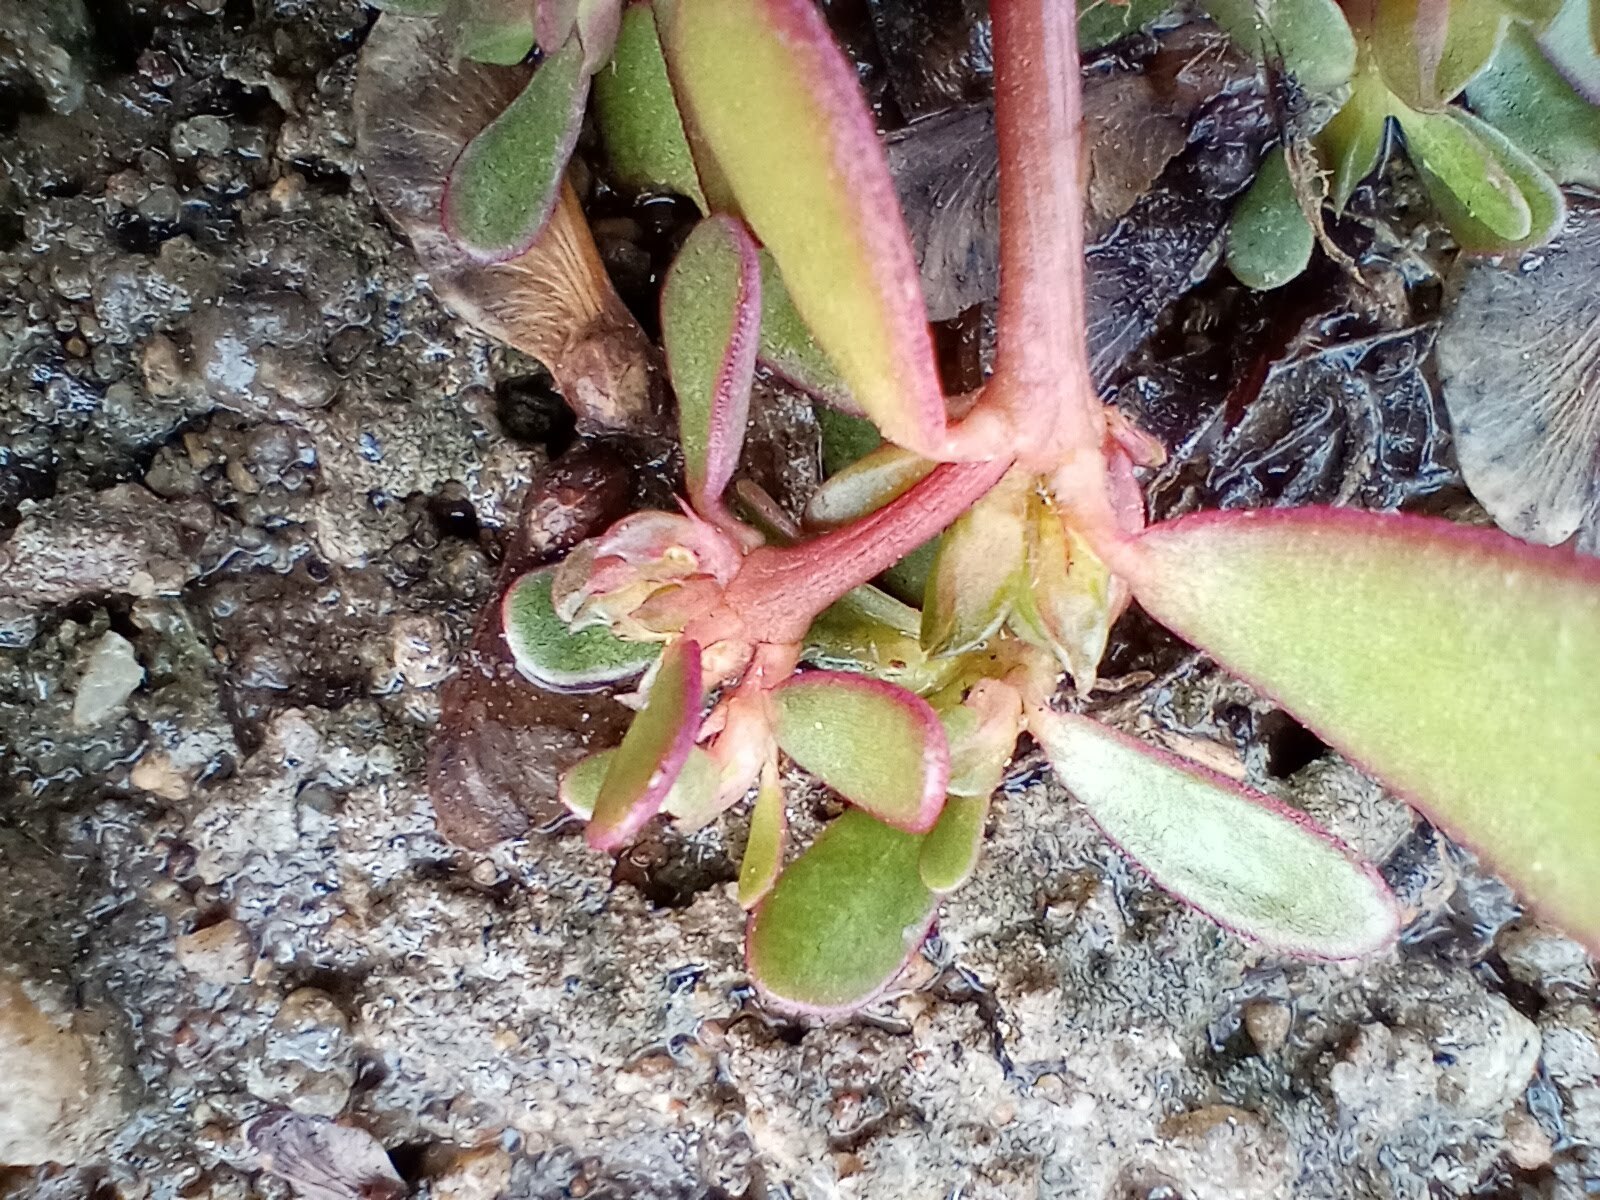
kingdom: Plantae
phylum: Tracheophyta
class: Magnoliopsida
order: Caryophyllales
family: Portulacaceae
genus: Portulaca
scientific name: Portulaca oleracea
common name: Common purslane
